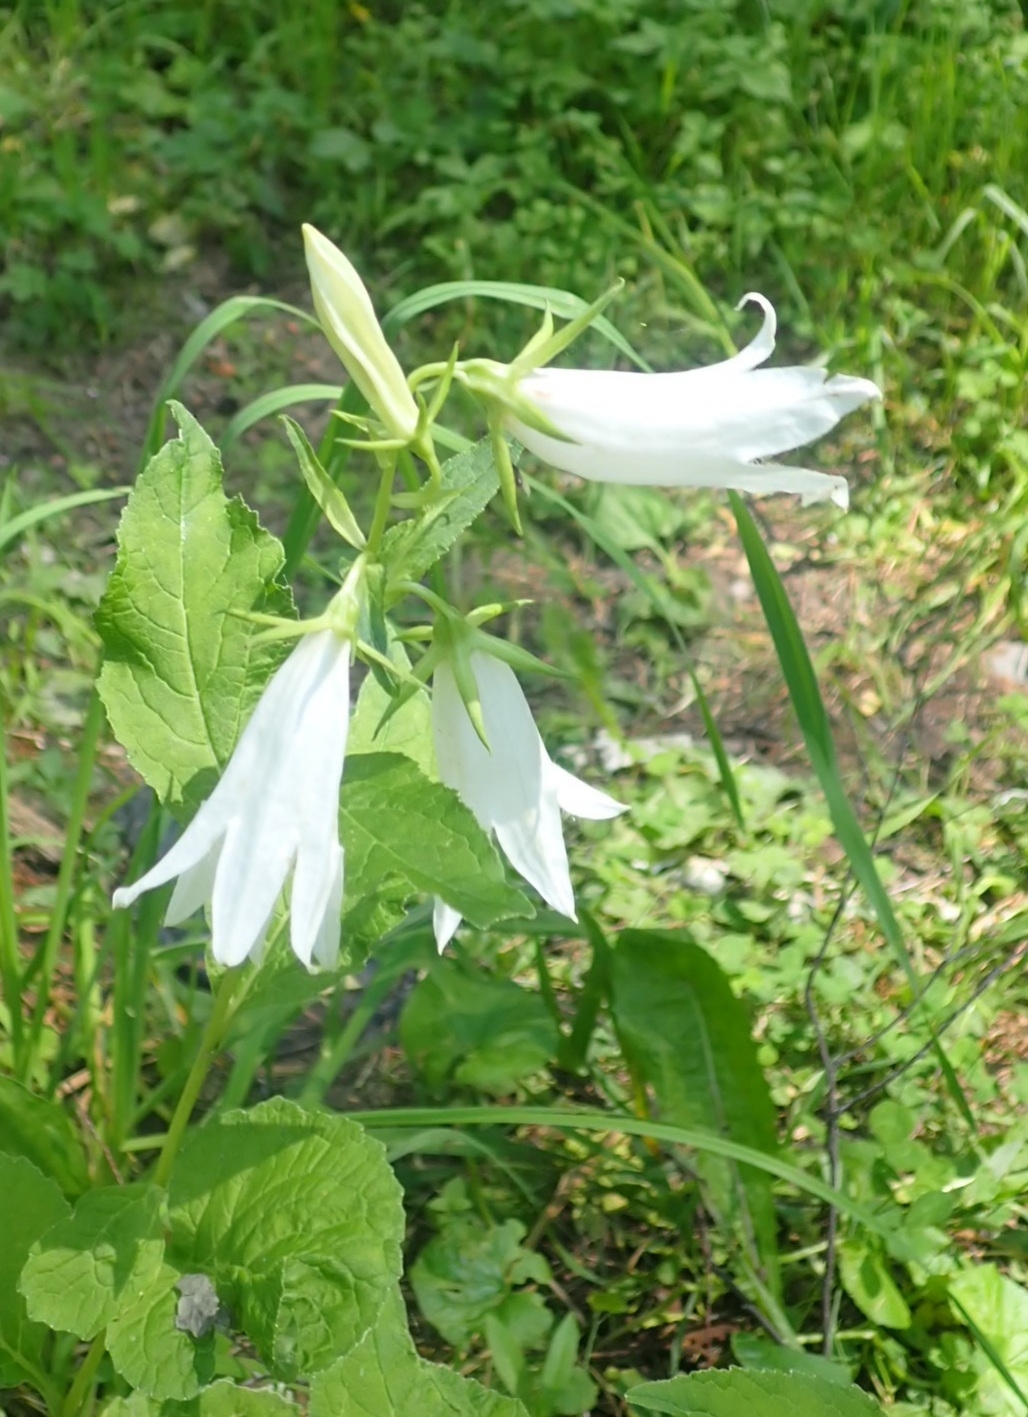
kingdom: Plantae
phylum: Tracheophyta
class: Magnoliopsida
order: Asterales
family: Campanulaceae
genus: Campanula
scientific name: Campanula latifolia
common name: Giant bellflower
